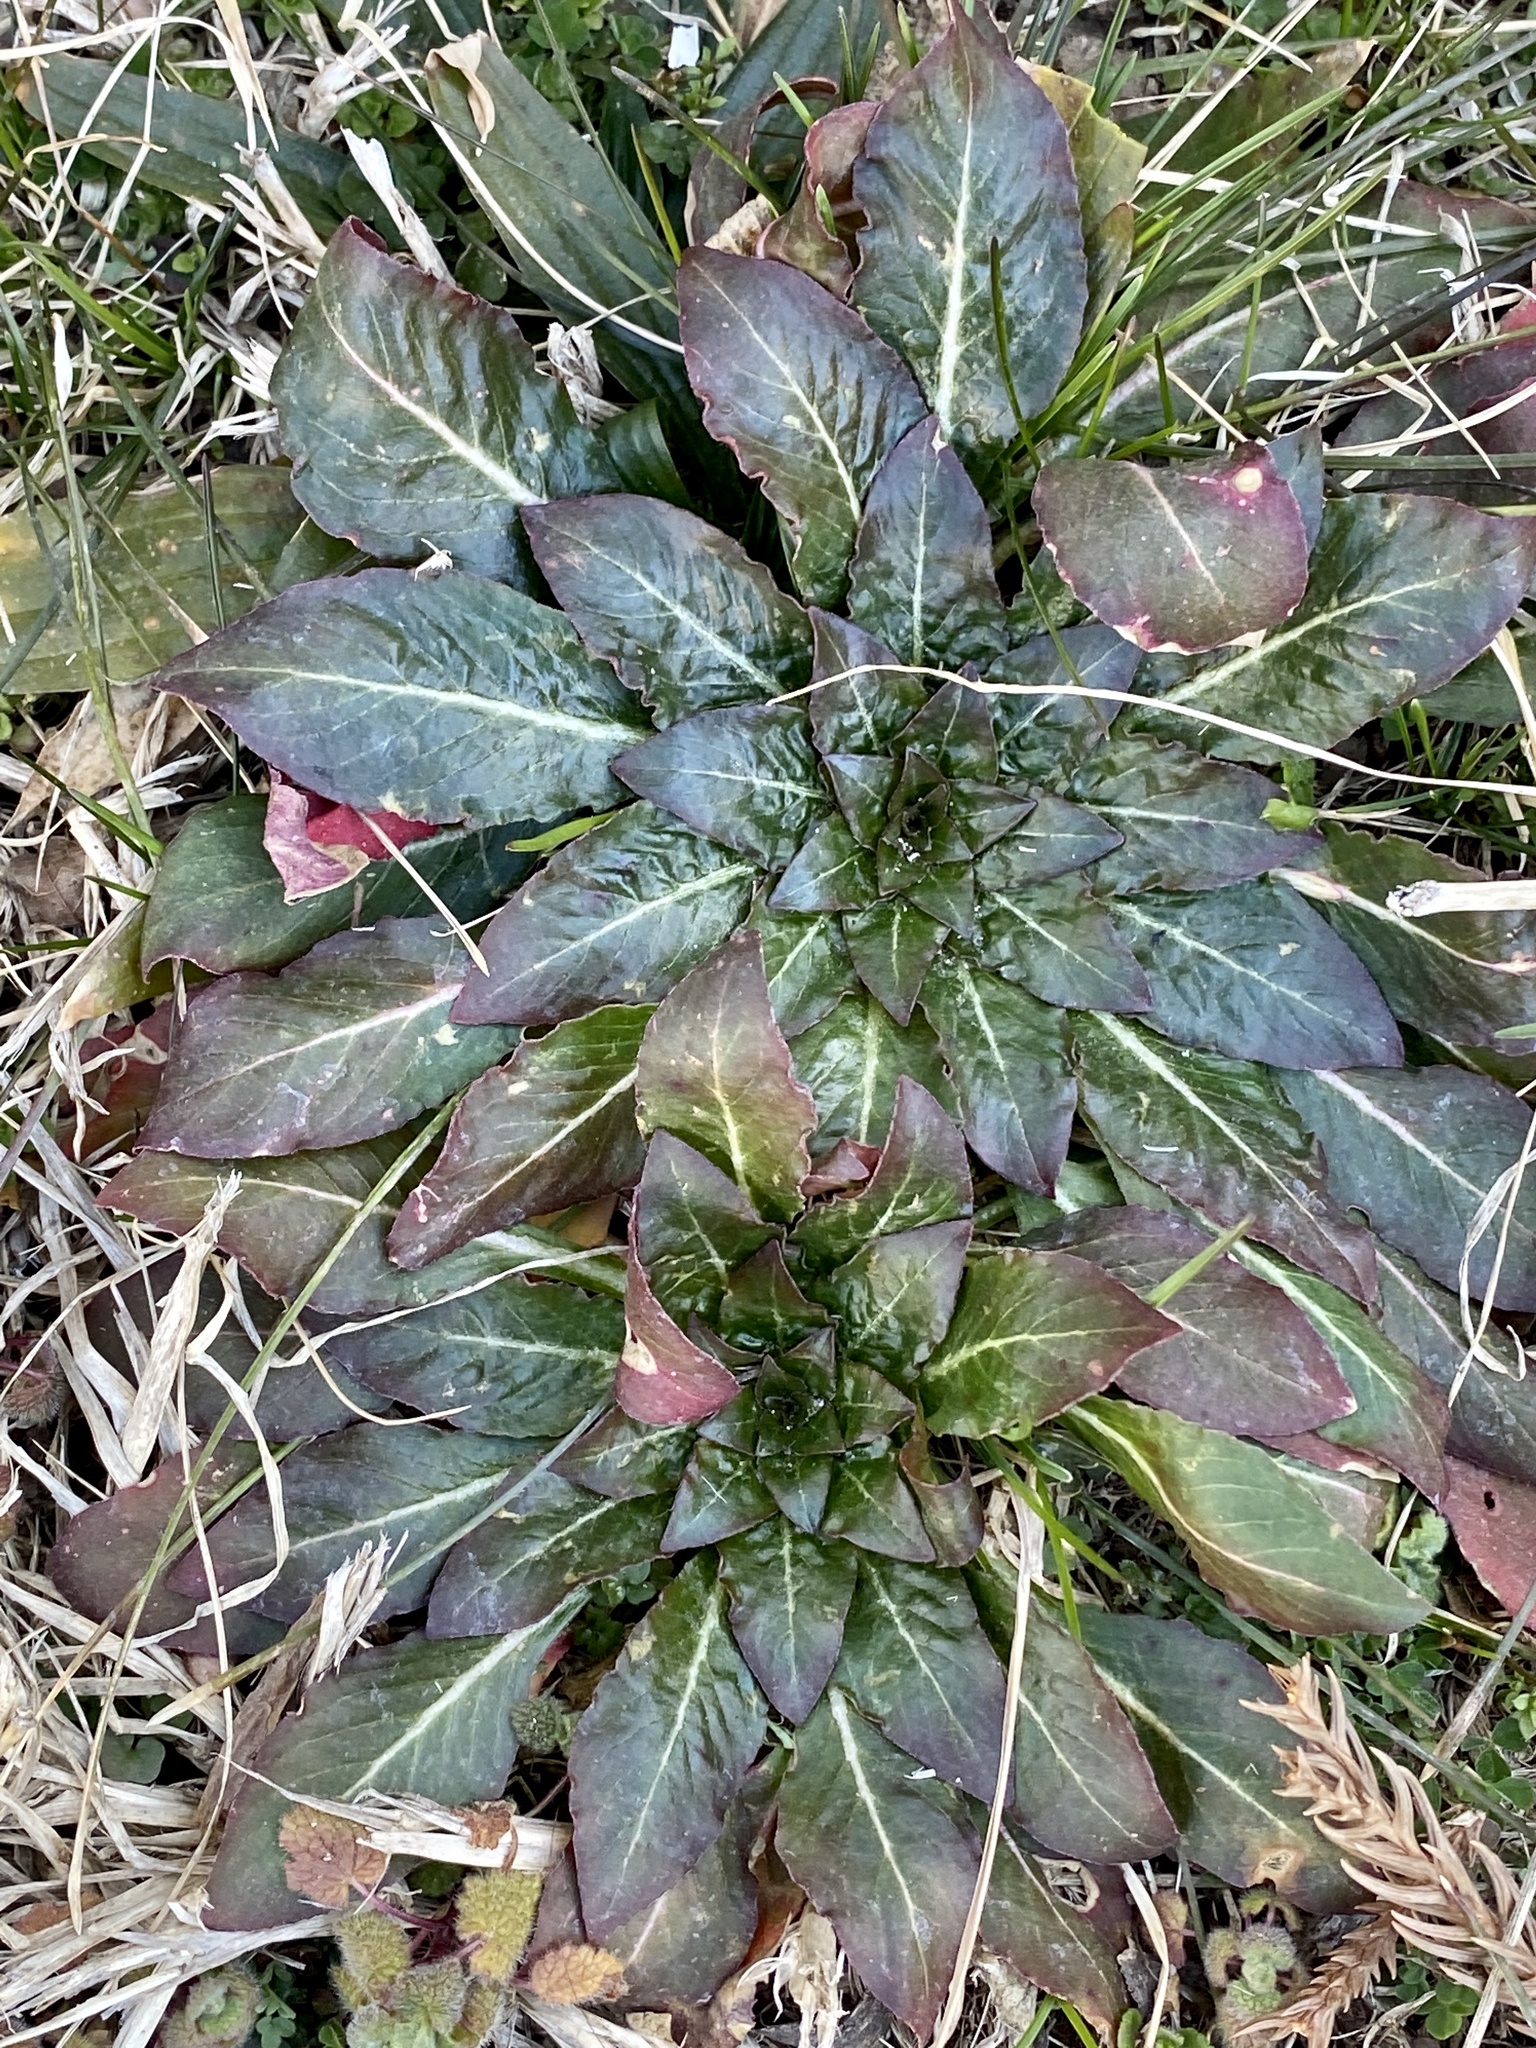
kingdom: Plantae
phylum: Tracheophyta
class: Magnoliopsida
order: Myrtales
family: Onagraceae
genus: Oenothera
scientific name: Oenothera biennis
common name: Common evening-primrose
